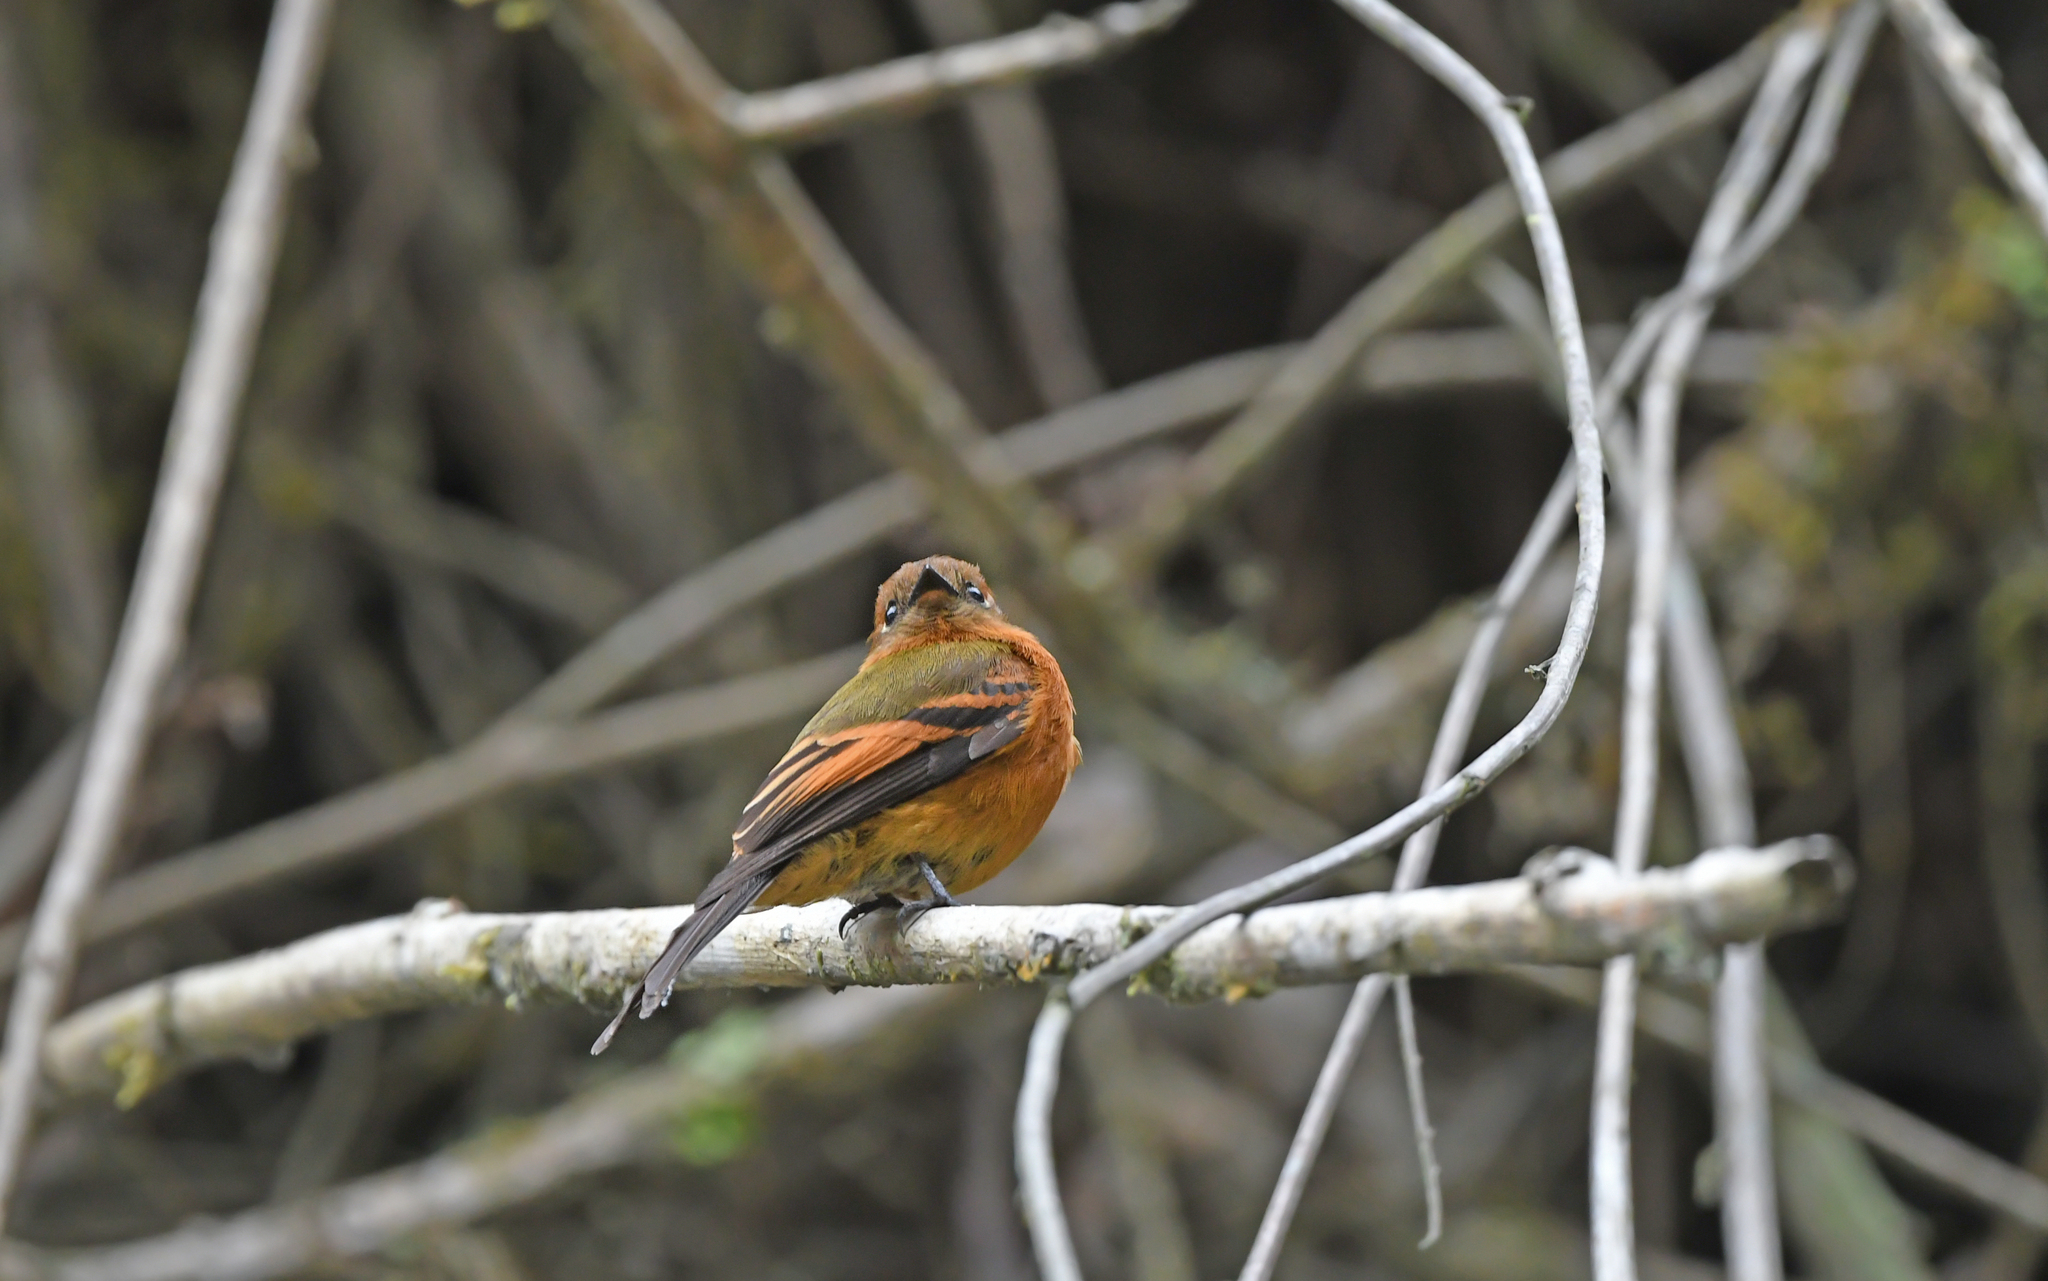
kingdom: Animalia
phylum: Chordata
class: Aves
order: Passeriformes
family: Tyrannidae
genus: Pyrrhomyias
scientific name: Pyrrhomyias cinnamomeus
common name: Cinnamon flycatcher
